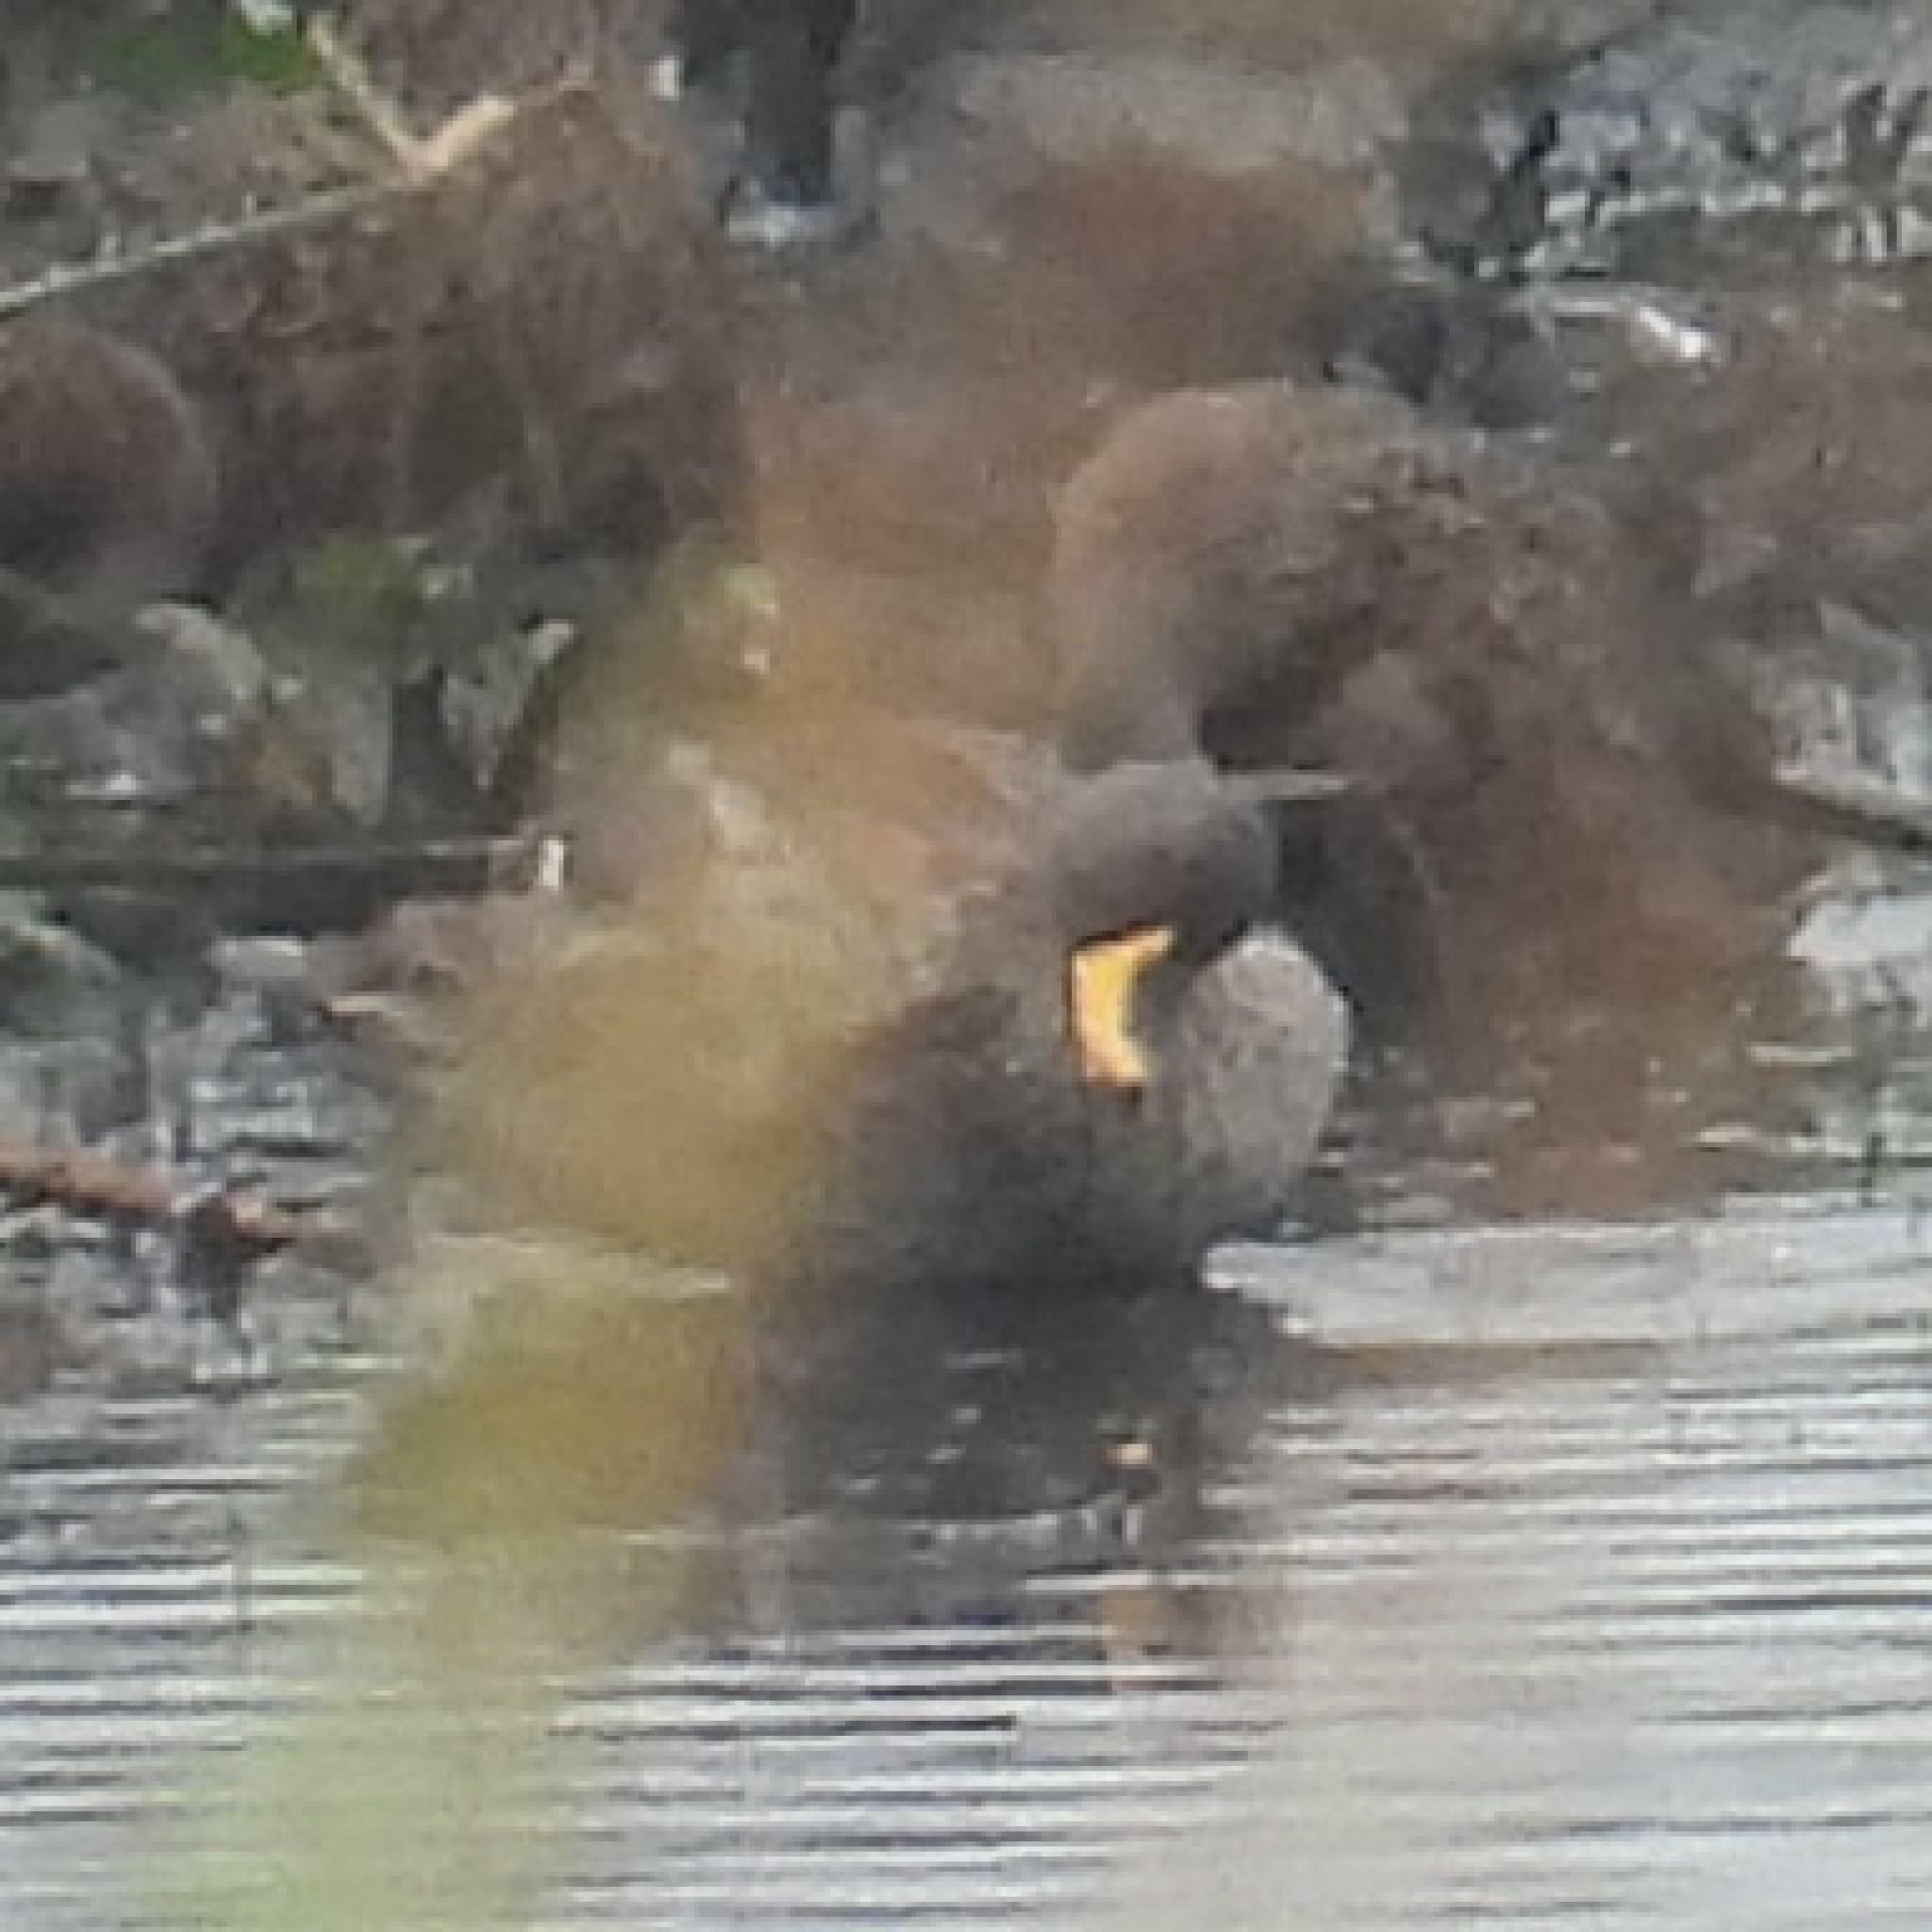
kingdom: Animalia
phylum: Chordata
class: Aves
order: Anseriformes
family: Anatidae
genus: Anas
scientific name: Anas undulata
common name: Yellow-billed duck
